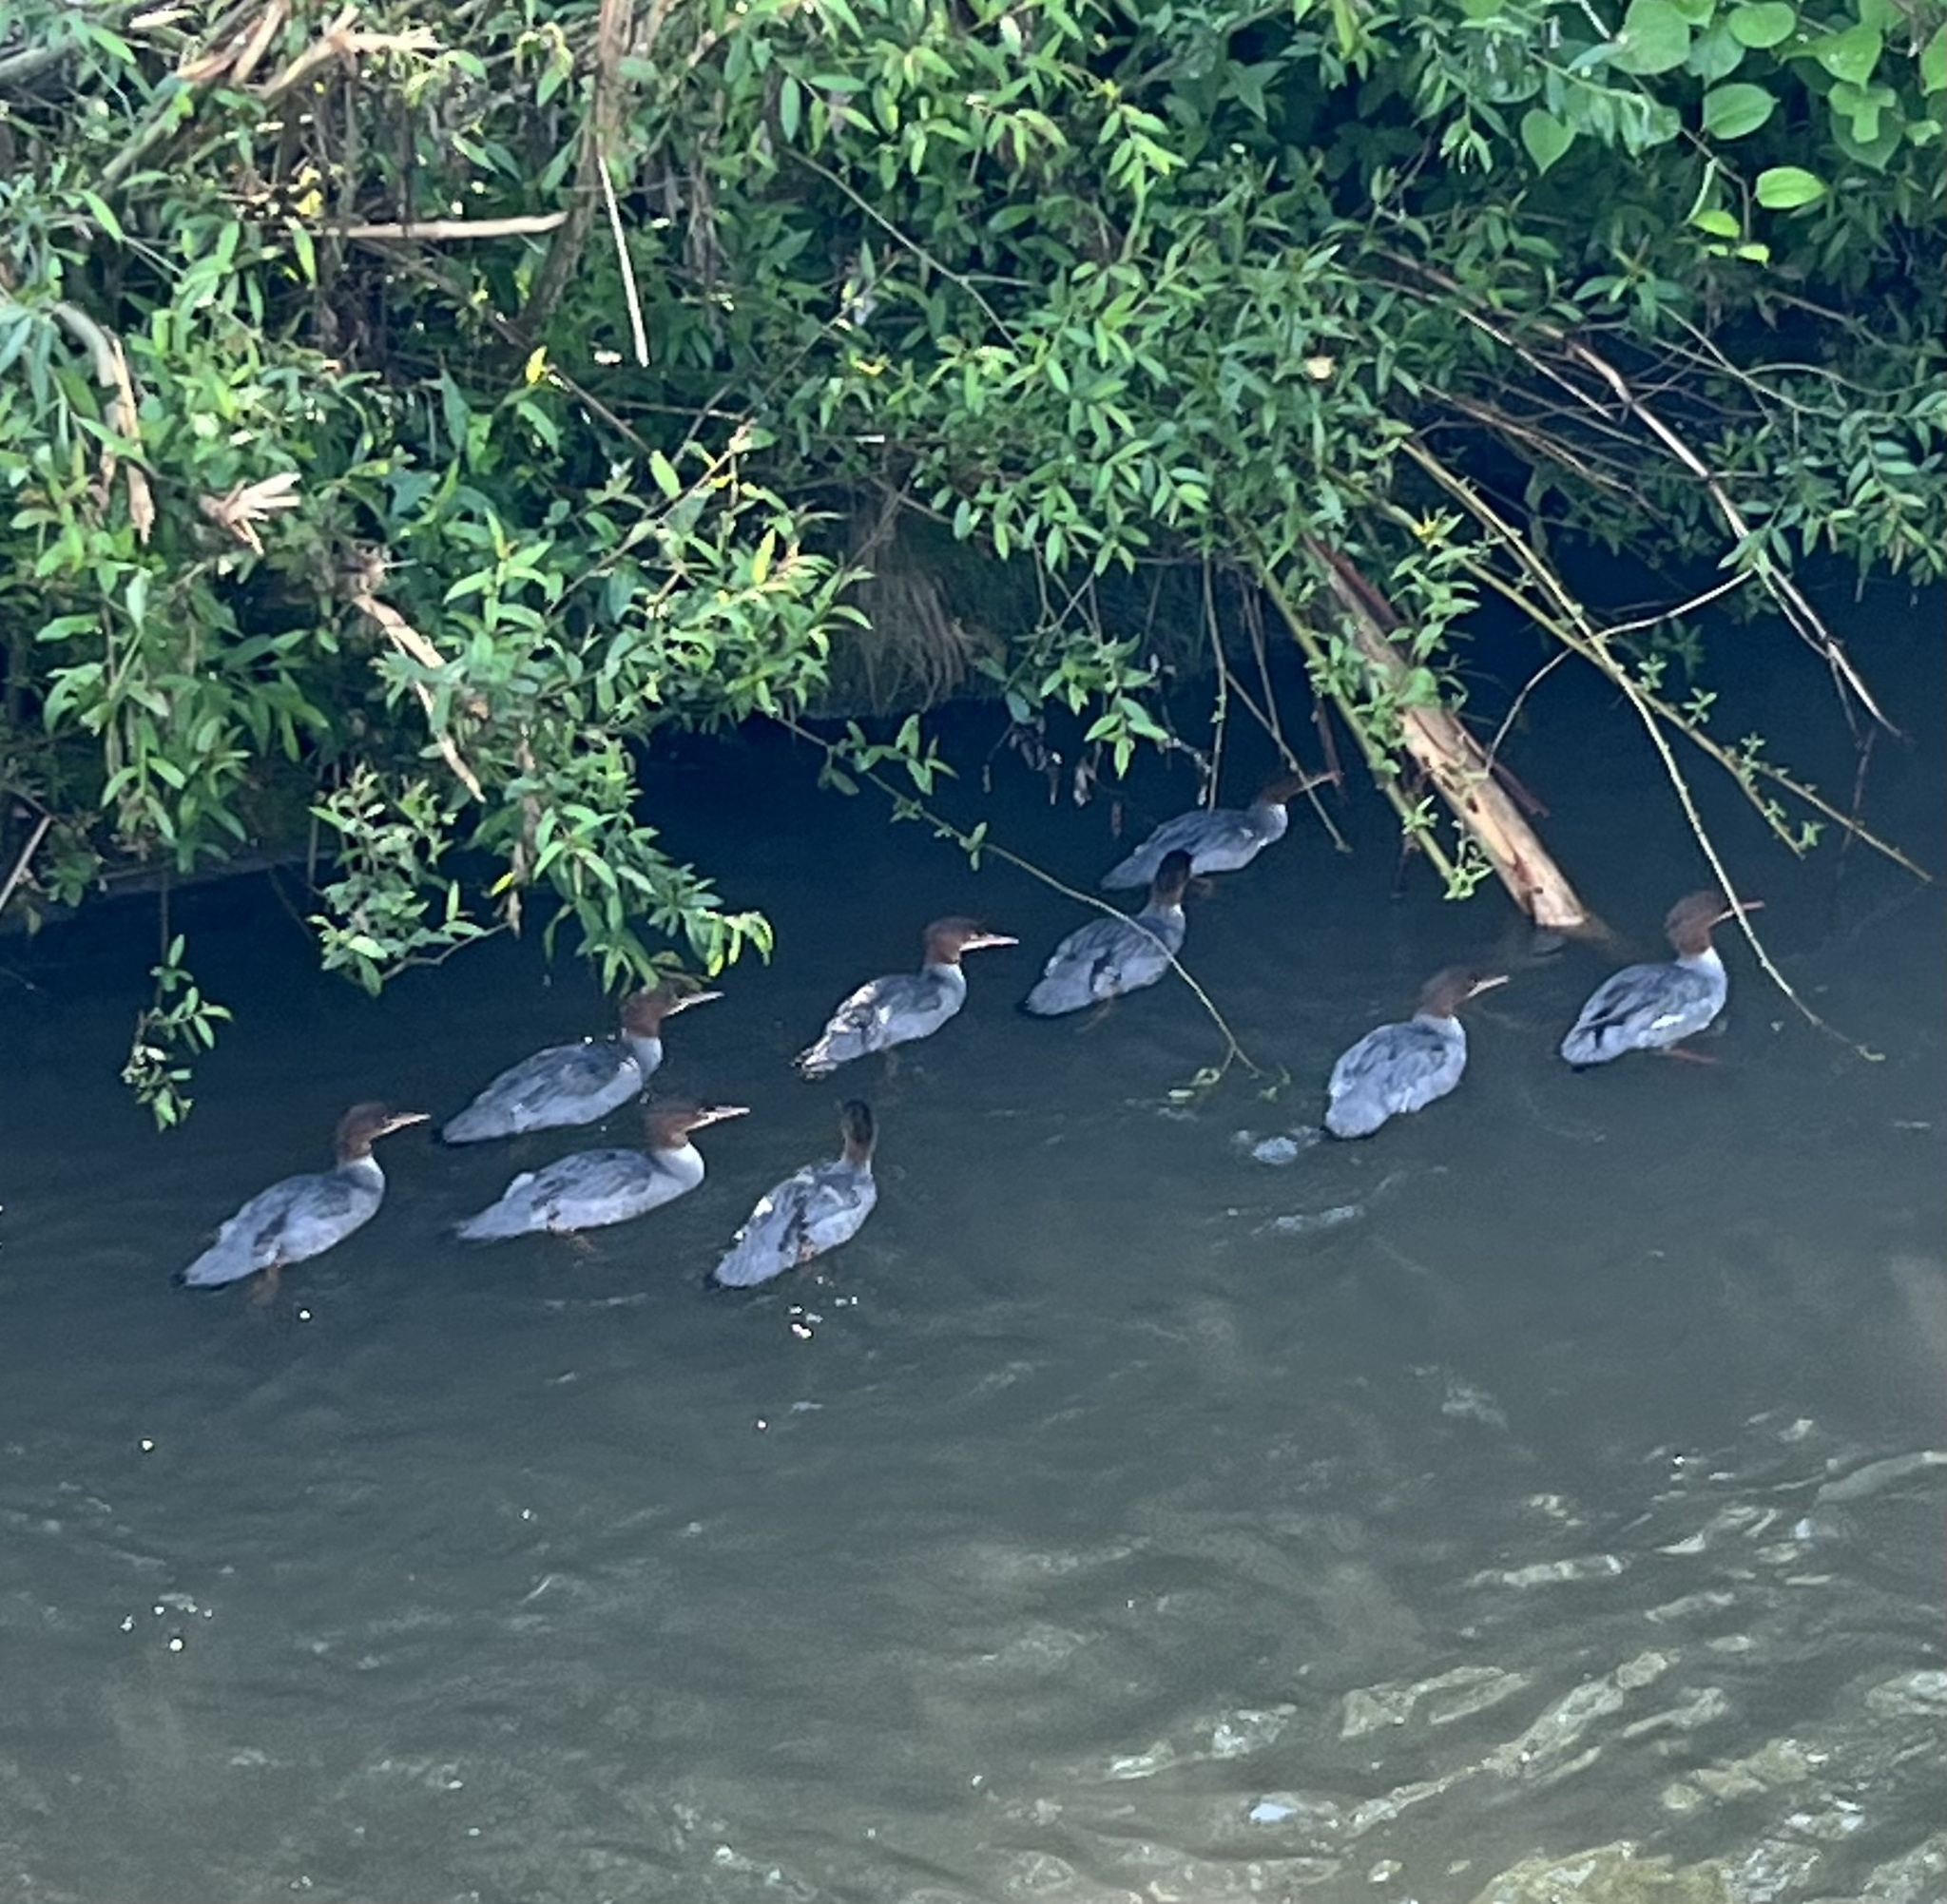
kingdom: Animalia
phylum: Chordata
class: Aves
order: Anseriformes
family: Anatidae
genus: Mergus
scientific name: Mergus merganser
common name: Common merganser
